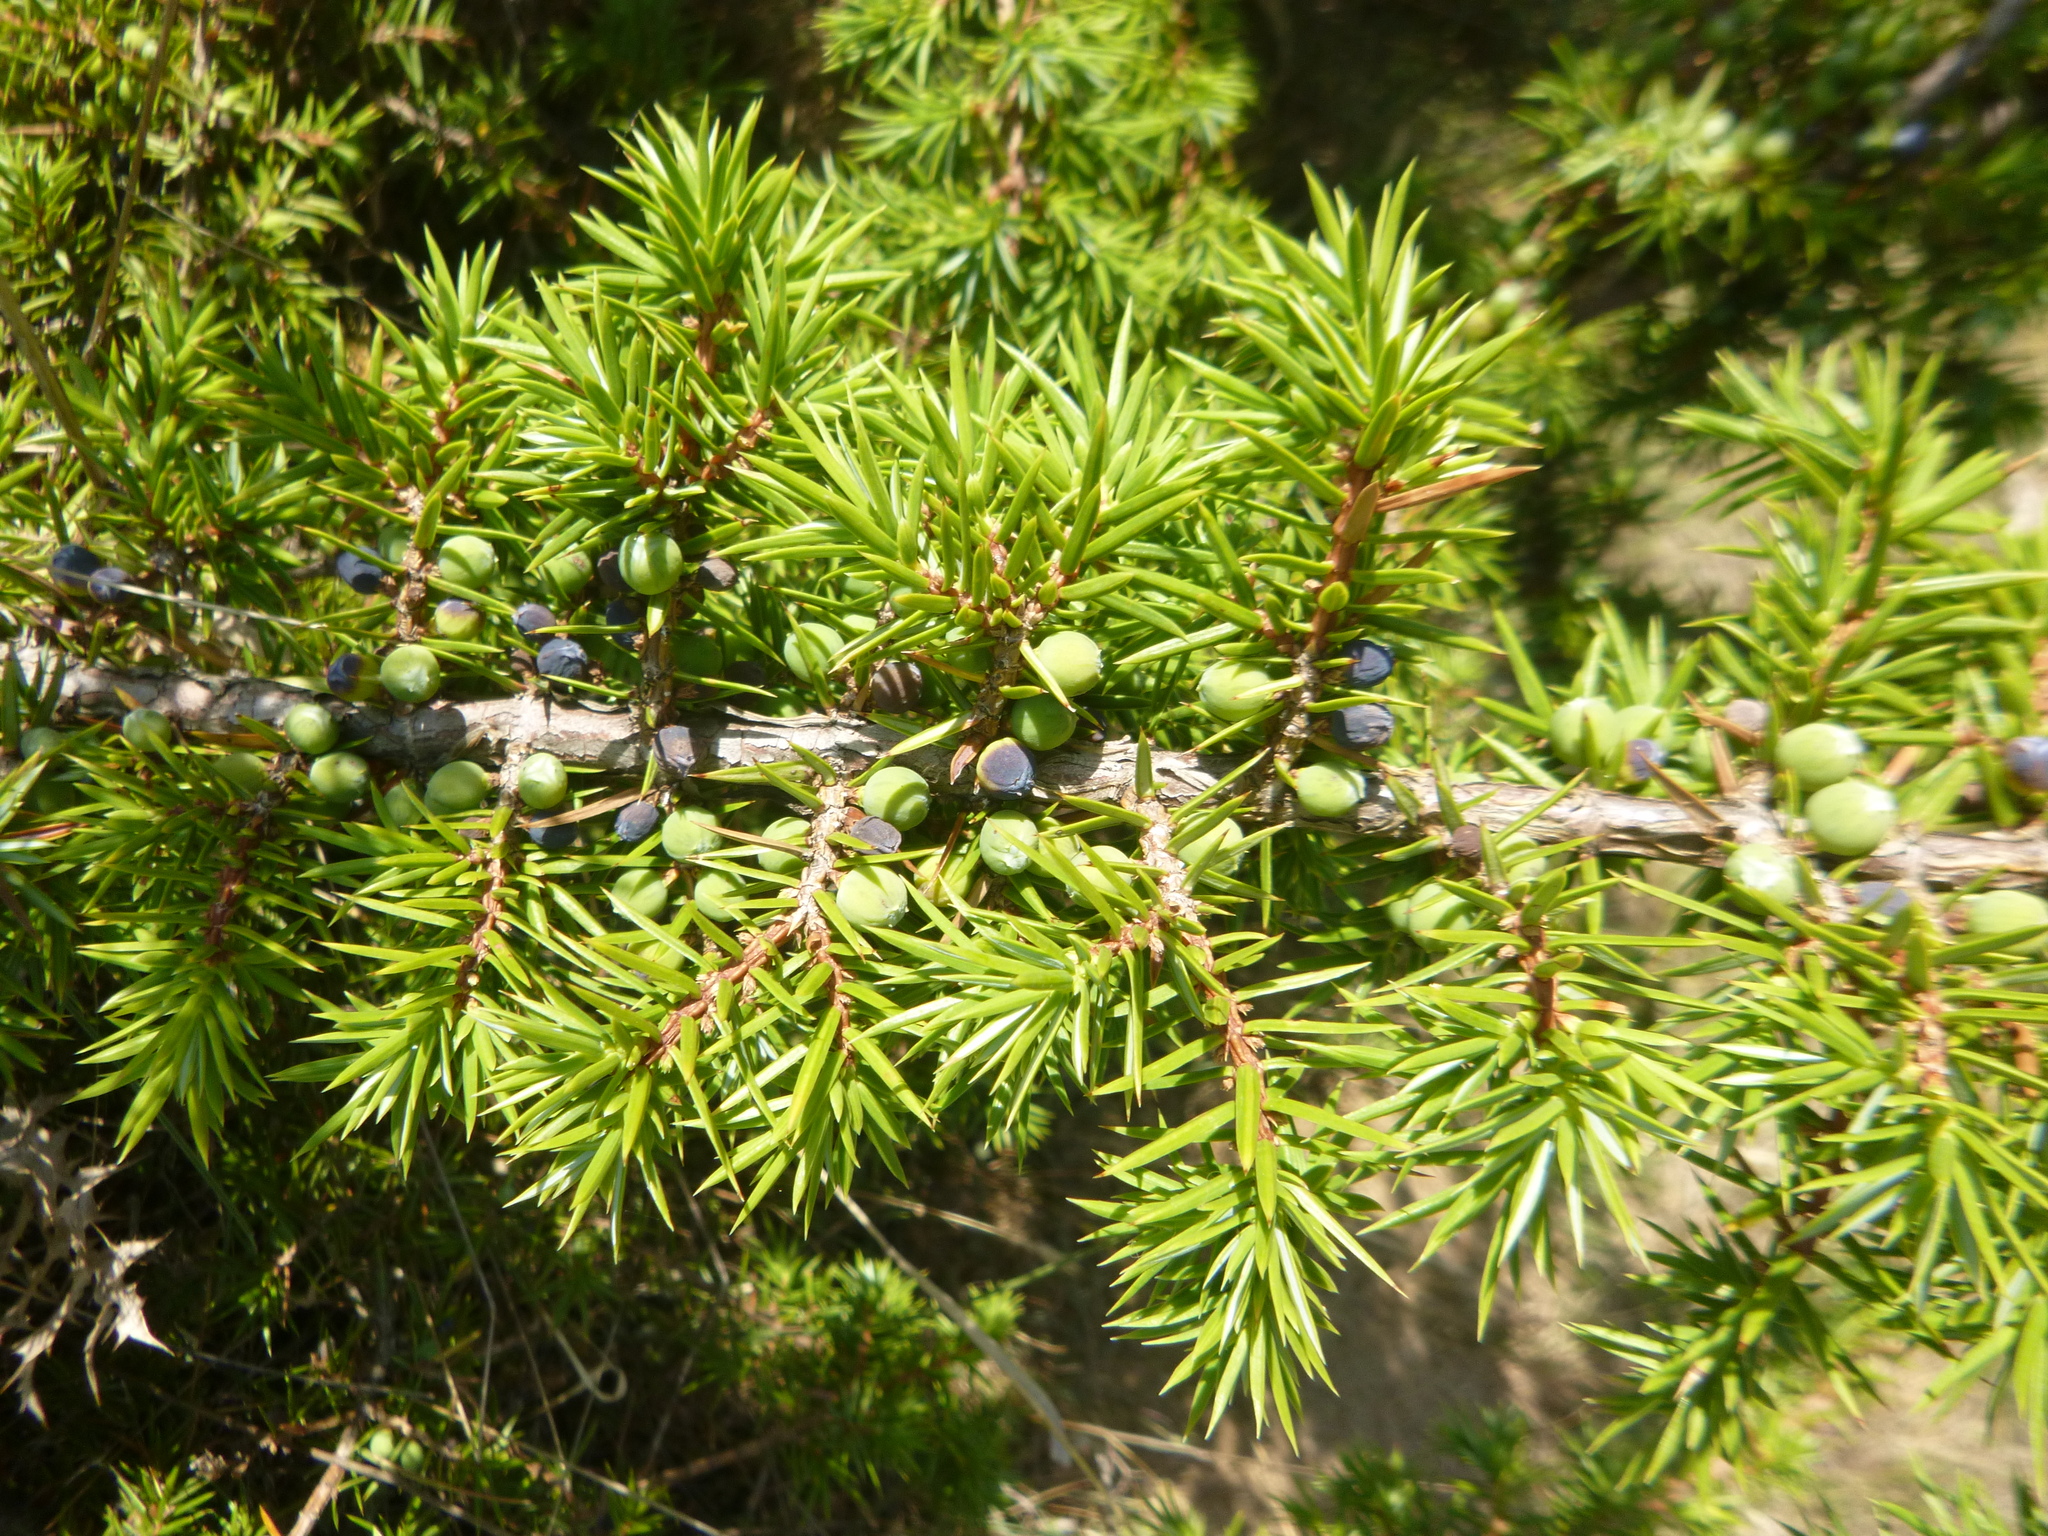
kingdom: Plantae
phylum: Tracheophyta
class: Pinopsida
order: Pinales
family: Cupressaceae
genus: Juniperus
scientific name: Juniperus communis
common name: Common juniper
